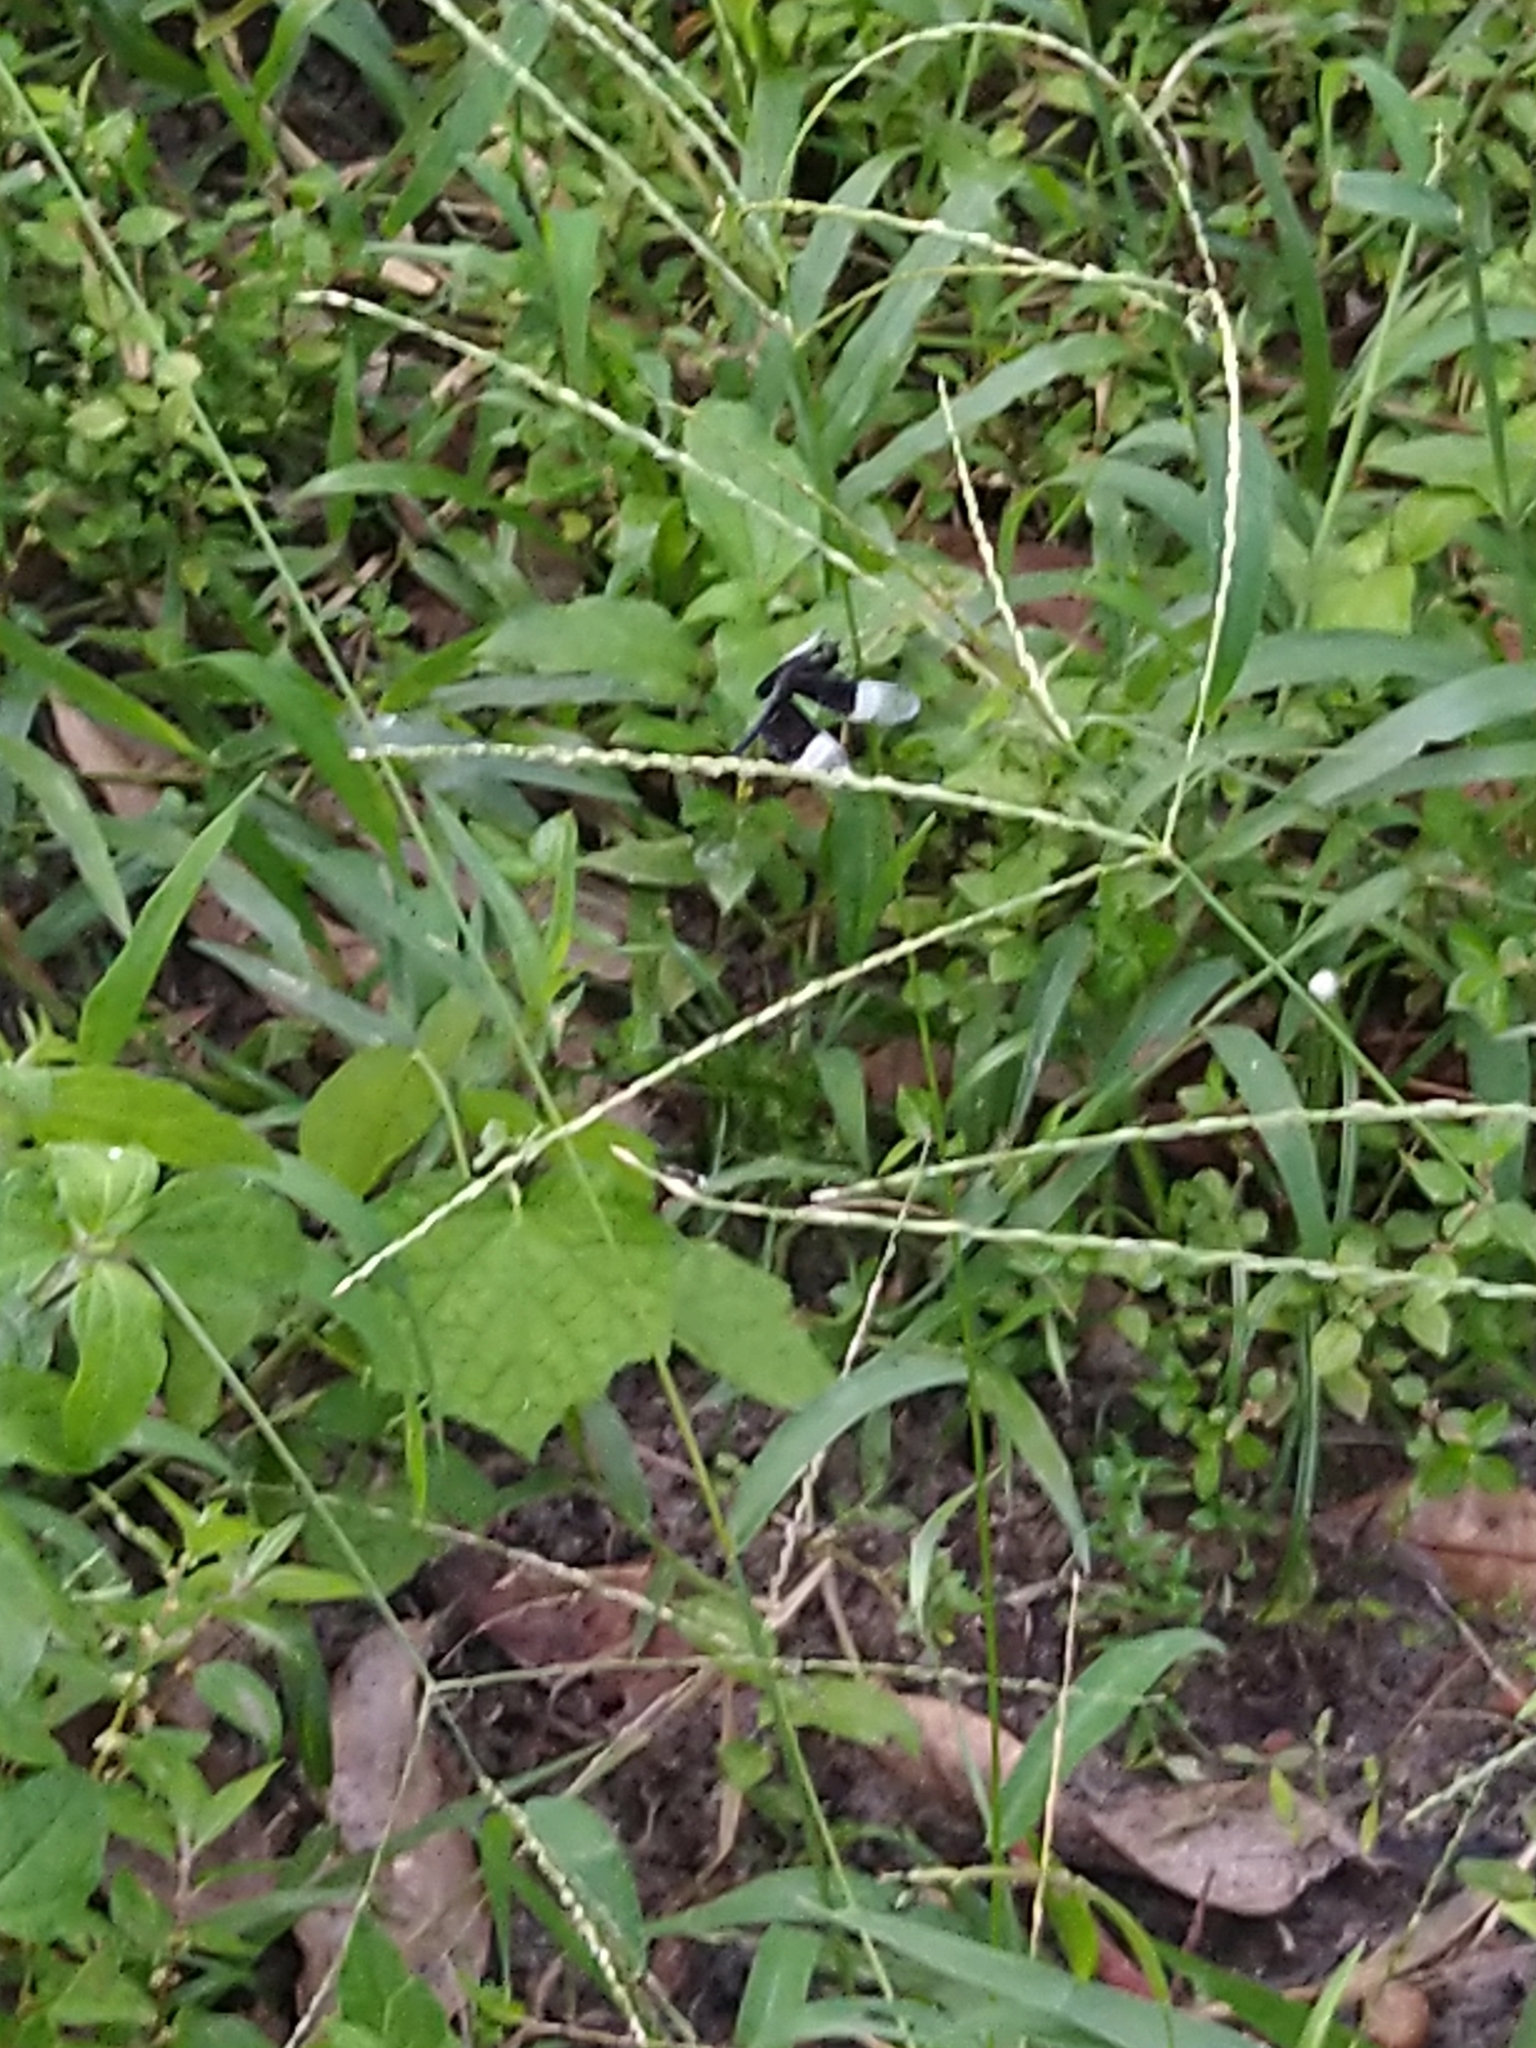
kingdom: Animalia
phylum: Arthropoda
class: Insecta
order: Odonata
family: Libellulidae
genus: Neurothemis
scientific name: Neurothemis tullia
